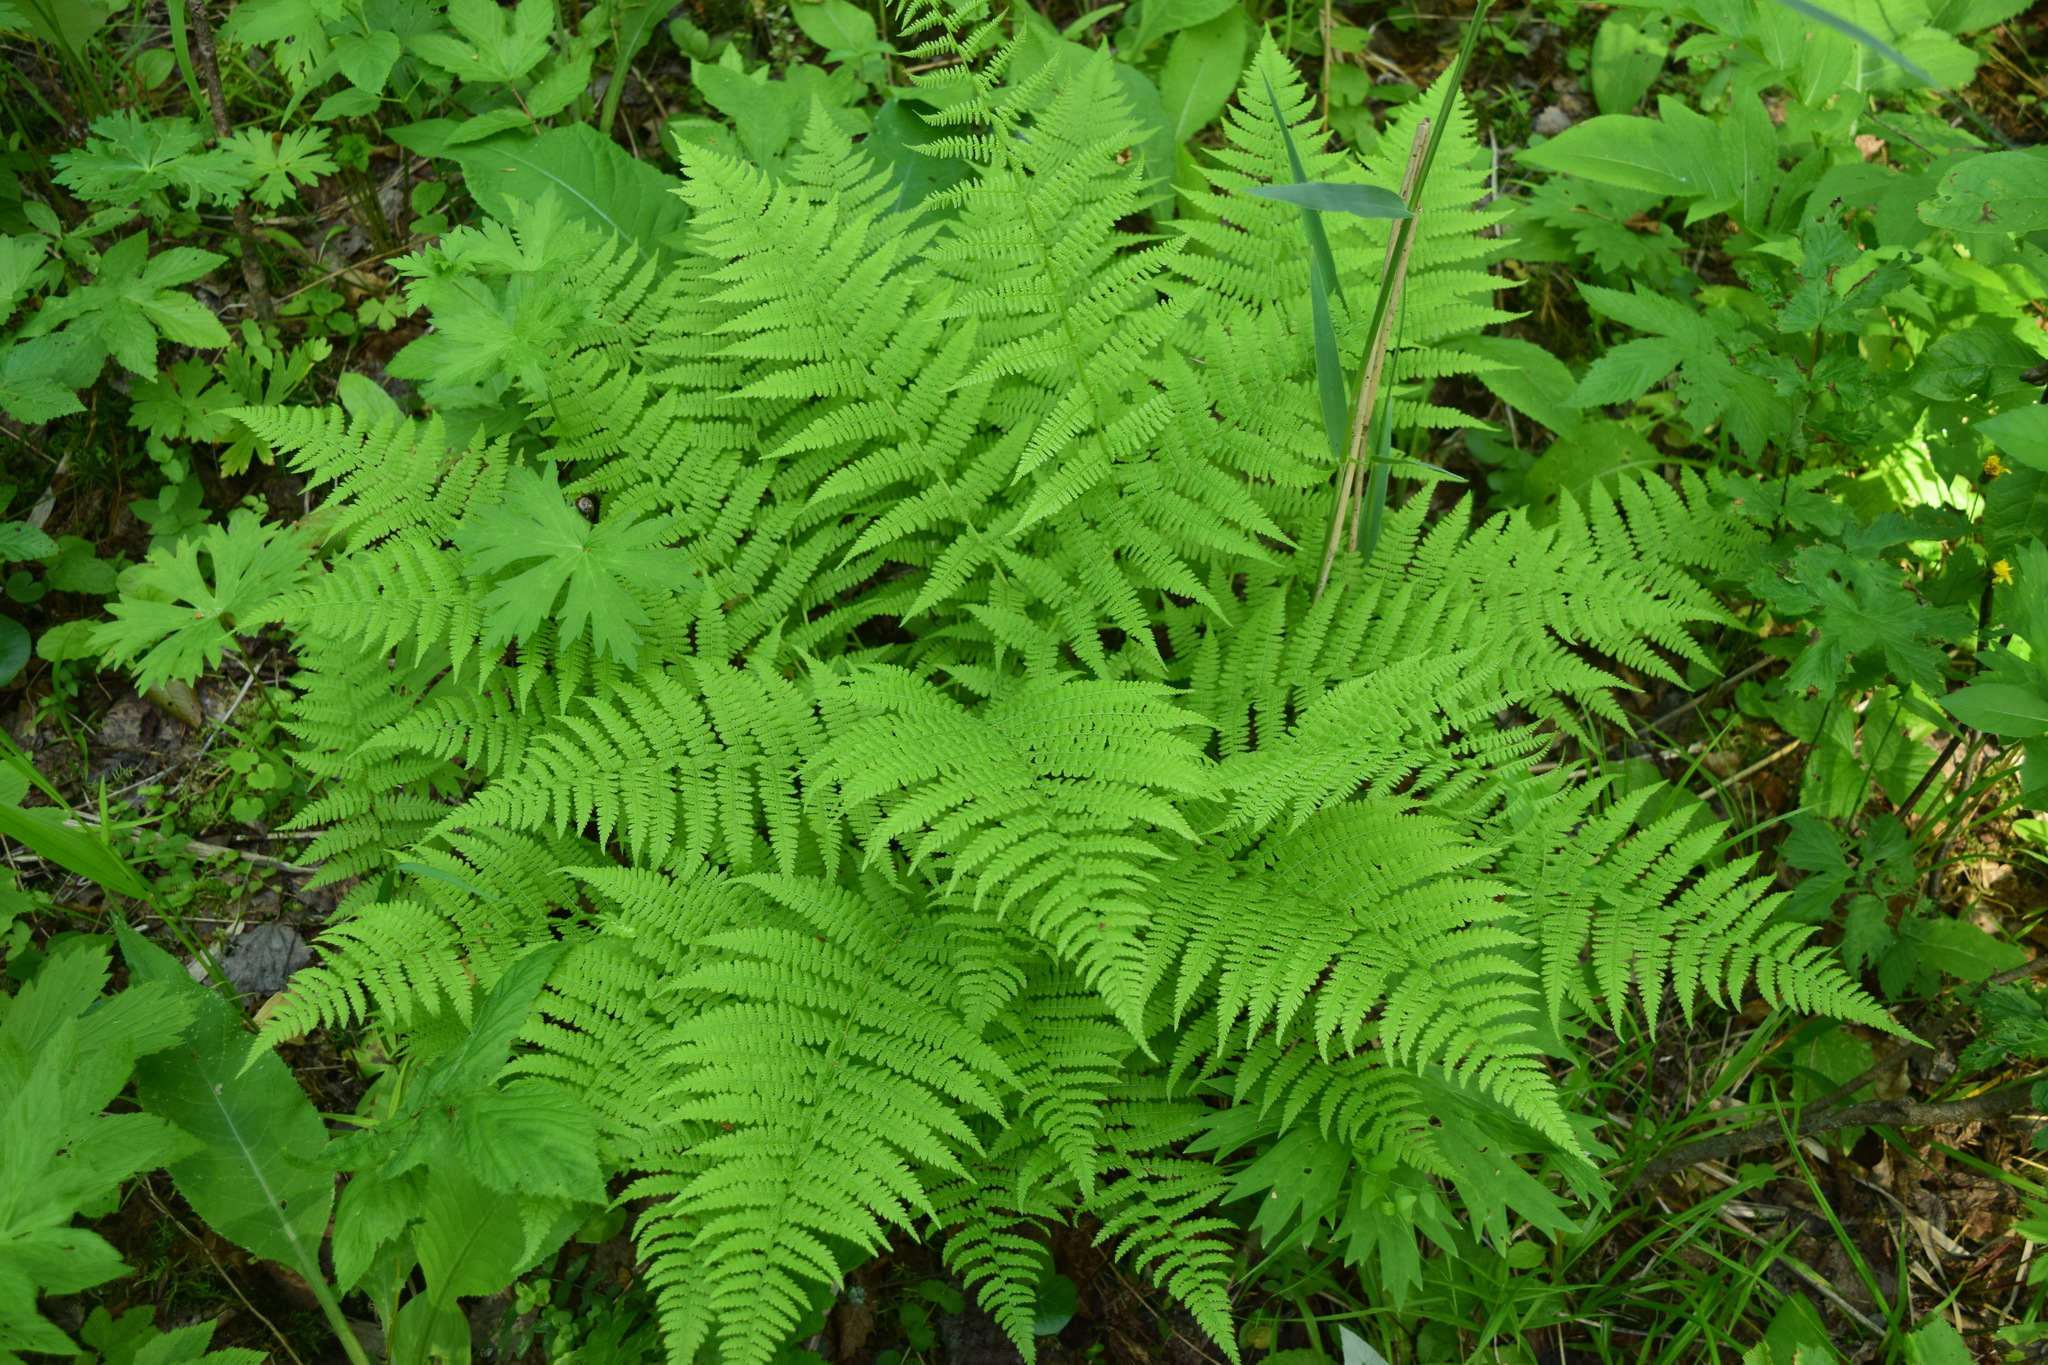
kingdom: Plantae
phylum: Tracheophyta
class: Polypodiopsida
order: Polypodiales
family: Athyriaceae
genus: Athyrium
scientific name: Athyrium filix-femina
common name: Lady fern
